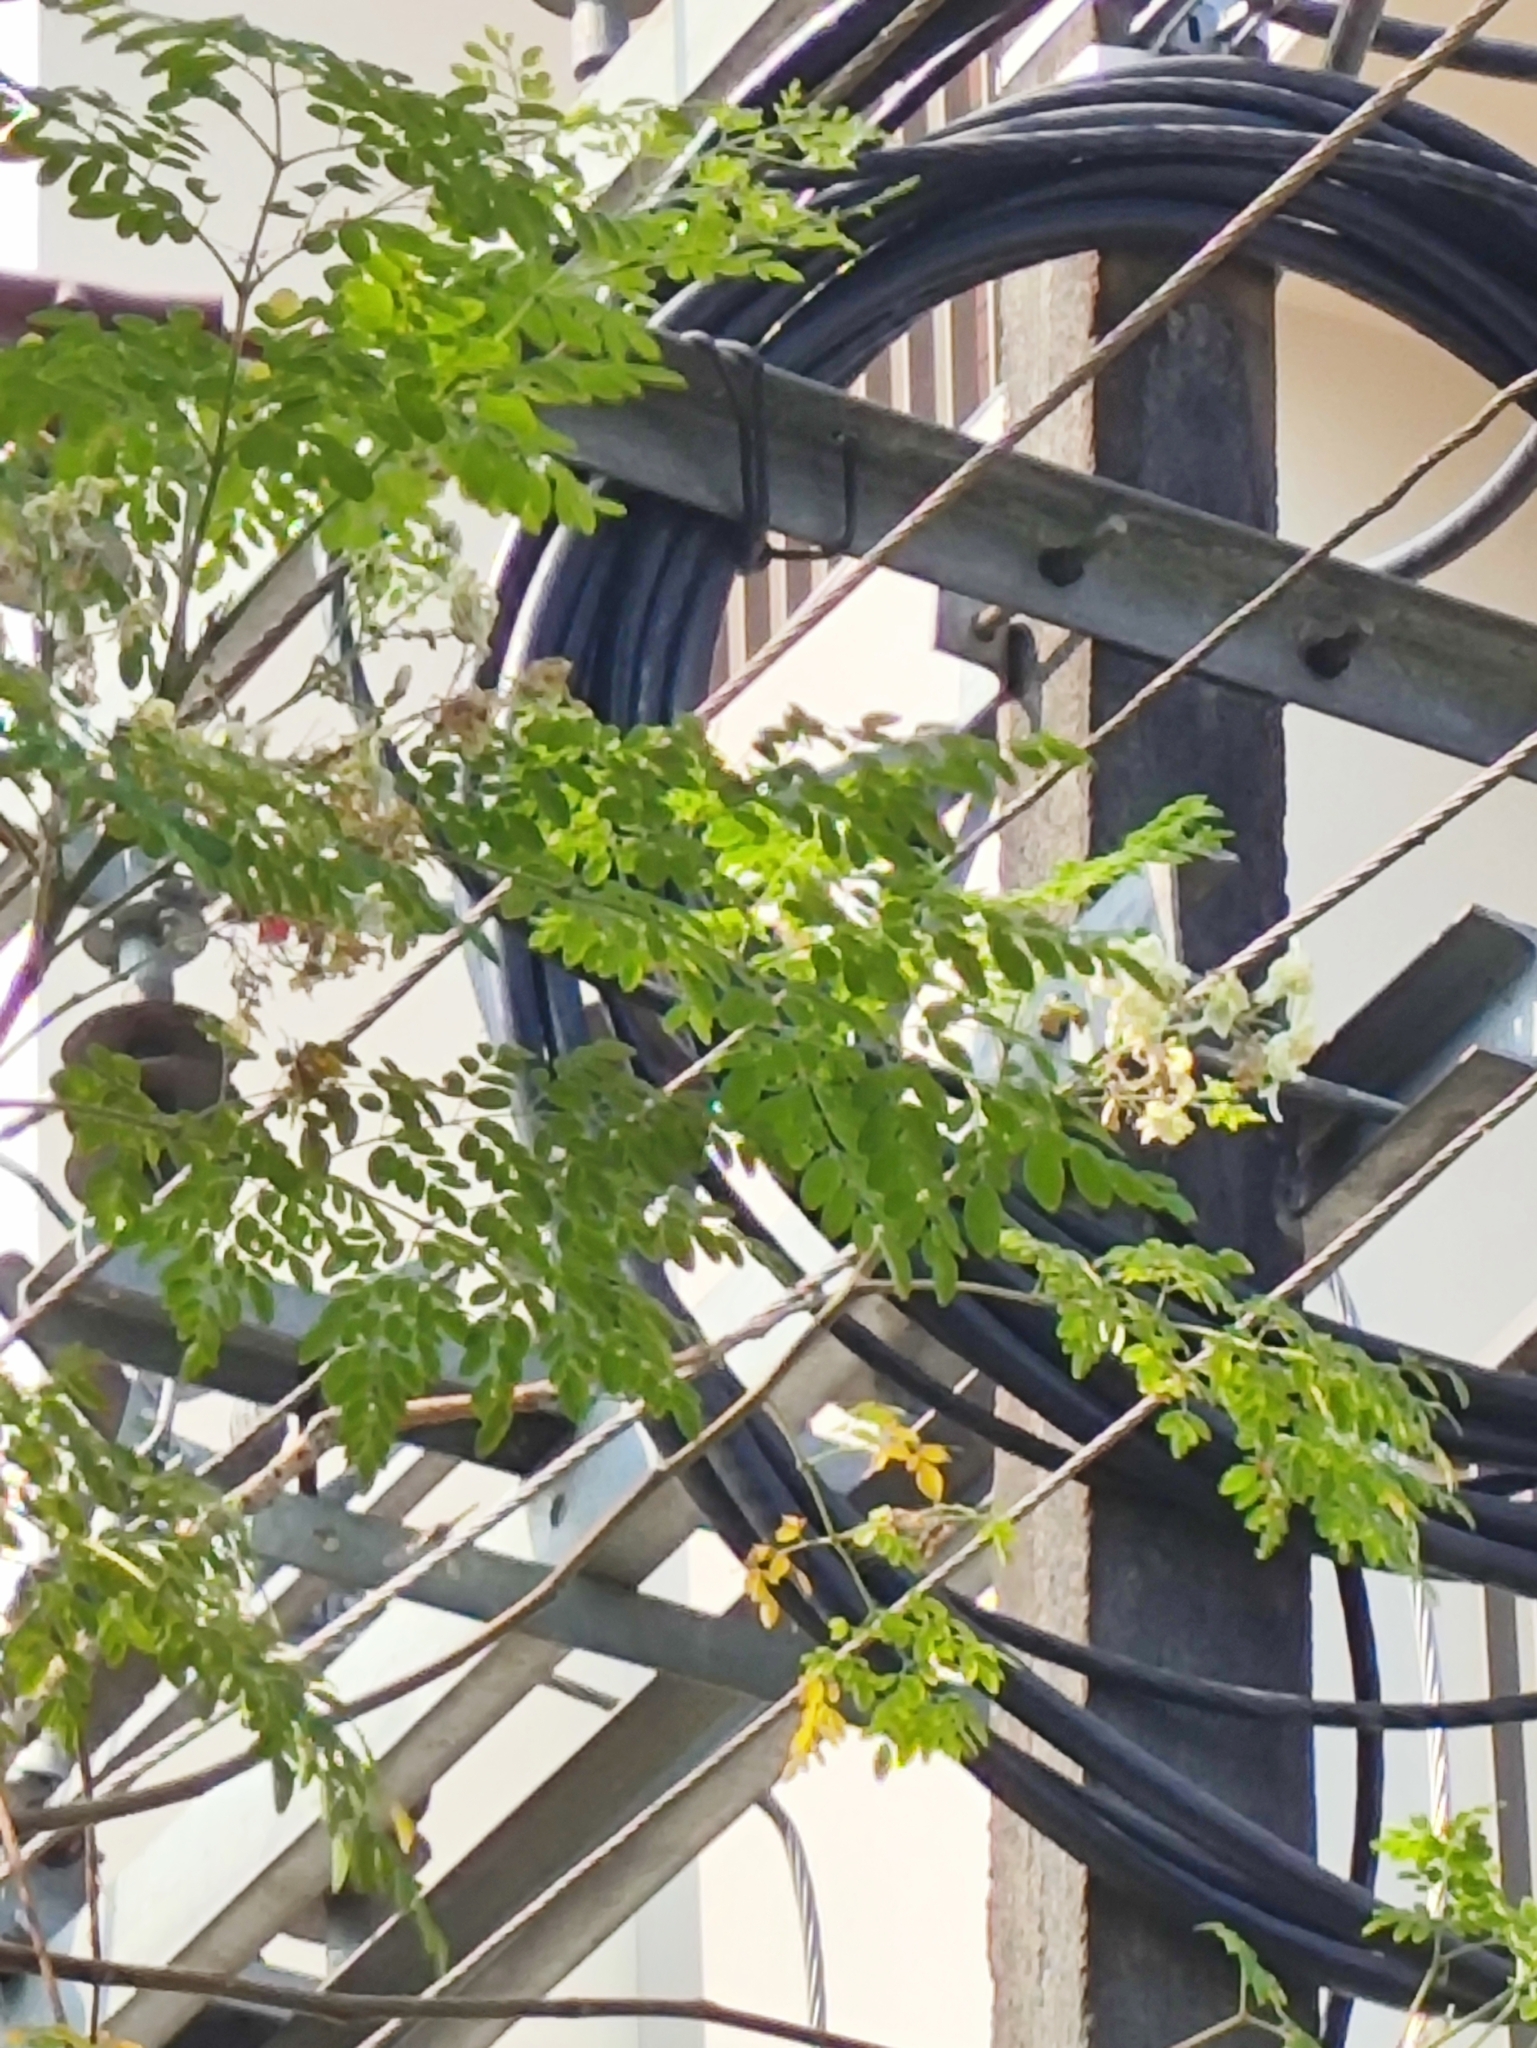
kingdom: Plantae
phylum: Tracheophyta
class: Magnoliopsida
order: Brassicales
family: Moringaceae
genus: Moringa
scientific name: Moringa oleifera
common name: Horseradish-tree
